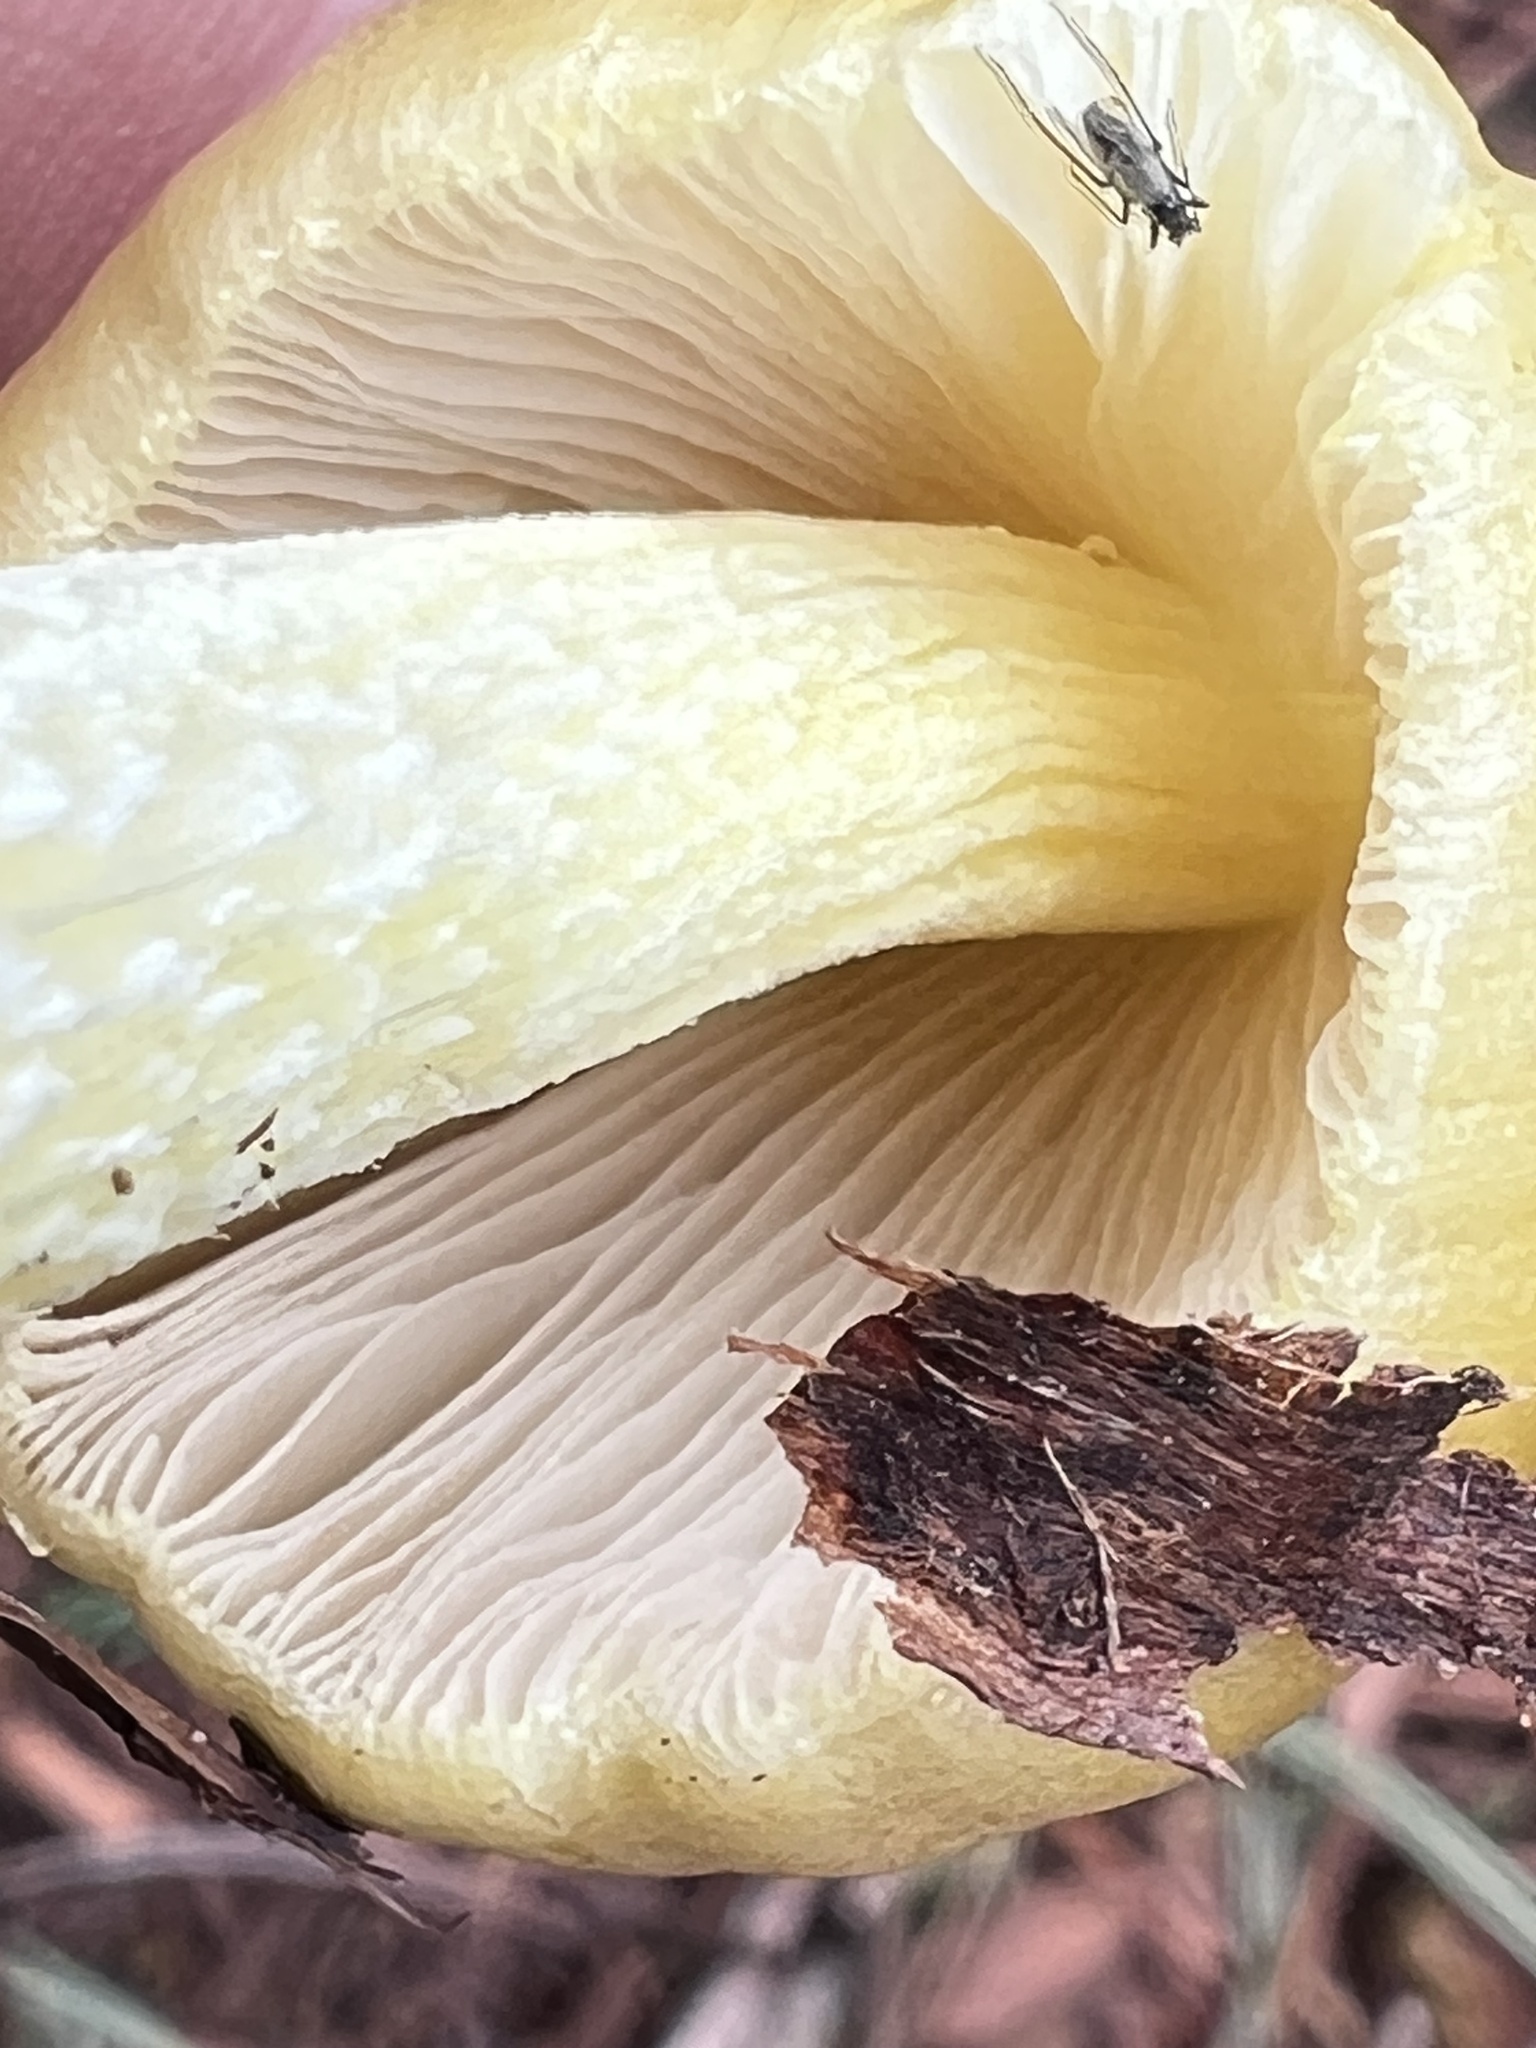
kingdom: Fungi
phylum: Basidiomycota
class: Agaricomycetes
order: Agaricales
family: Bolbitiaceae
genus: Bolbitius
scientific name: Bolbitius titubans
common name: Yellow fieldcap
